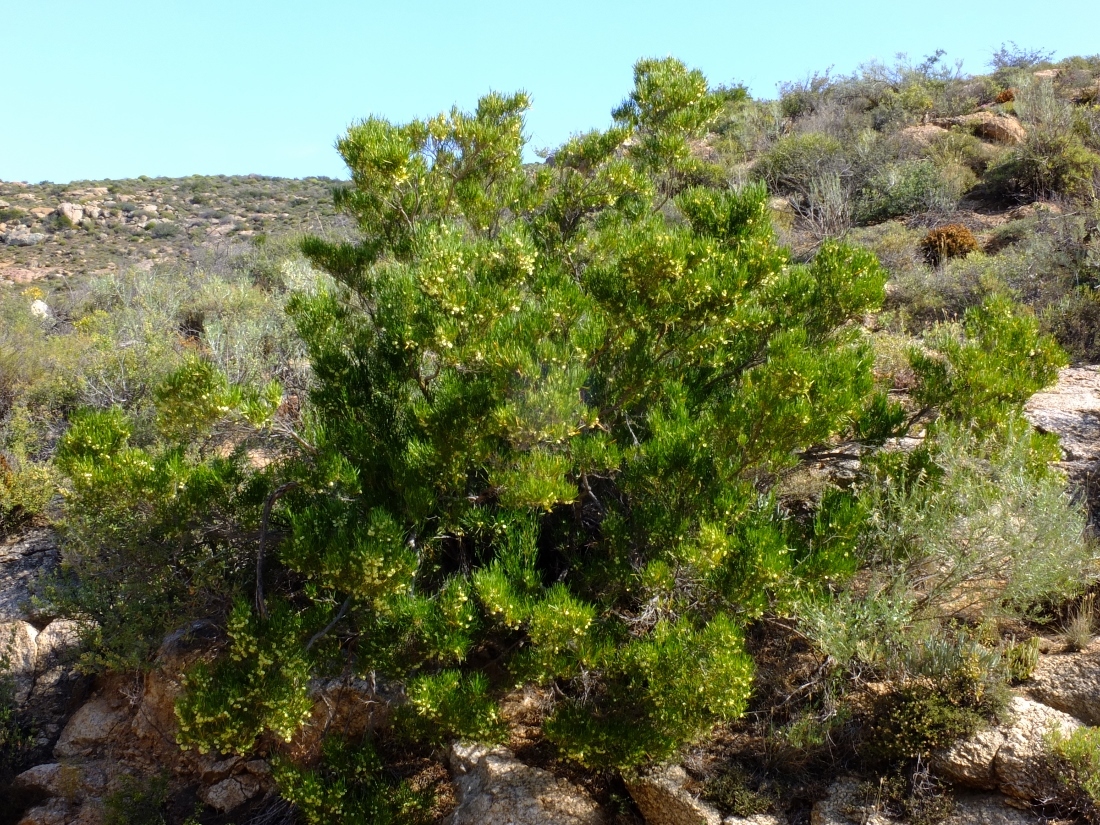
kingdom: Plantae
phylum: Tracheophyta
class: Magnoliopsida
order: Sapindales
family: Sapindaceae
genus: Dodonaea
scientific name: Dodonaea viscosa
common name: Hopbush
